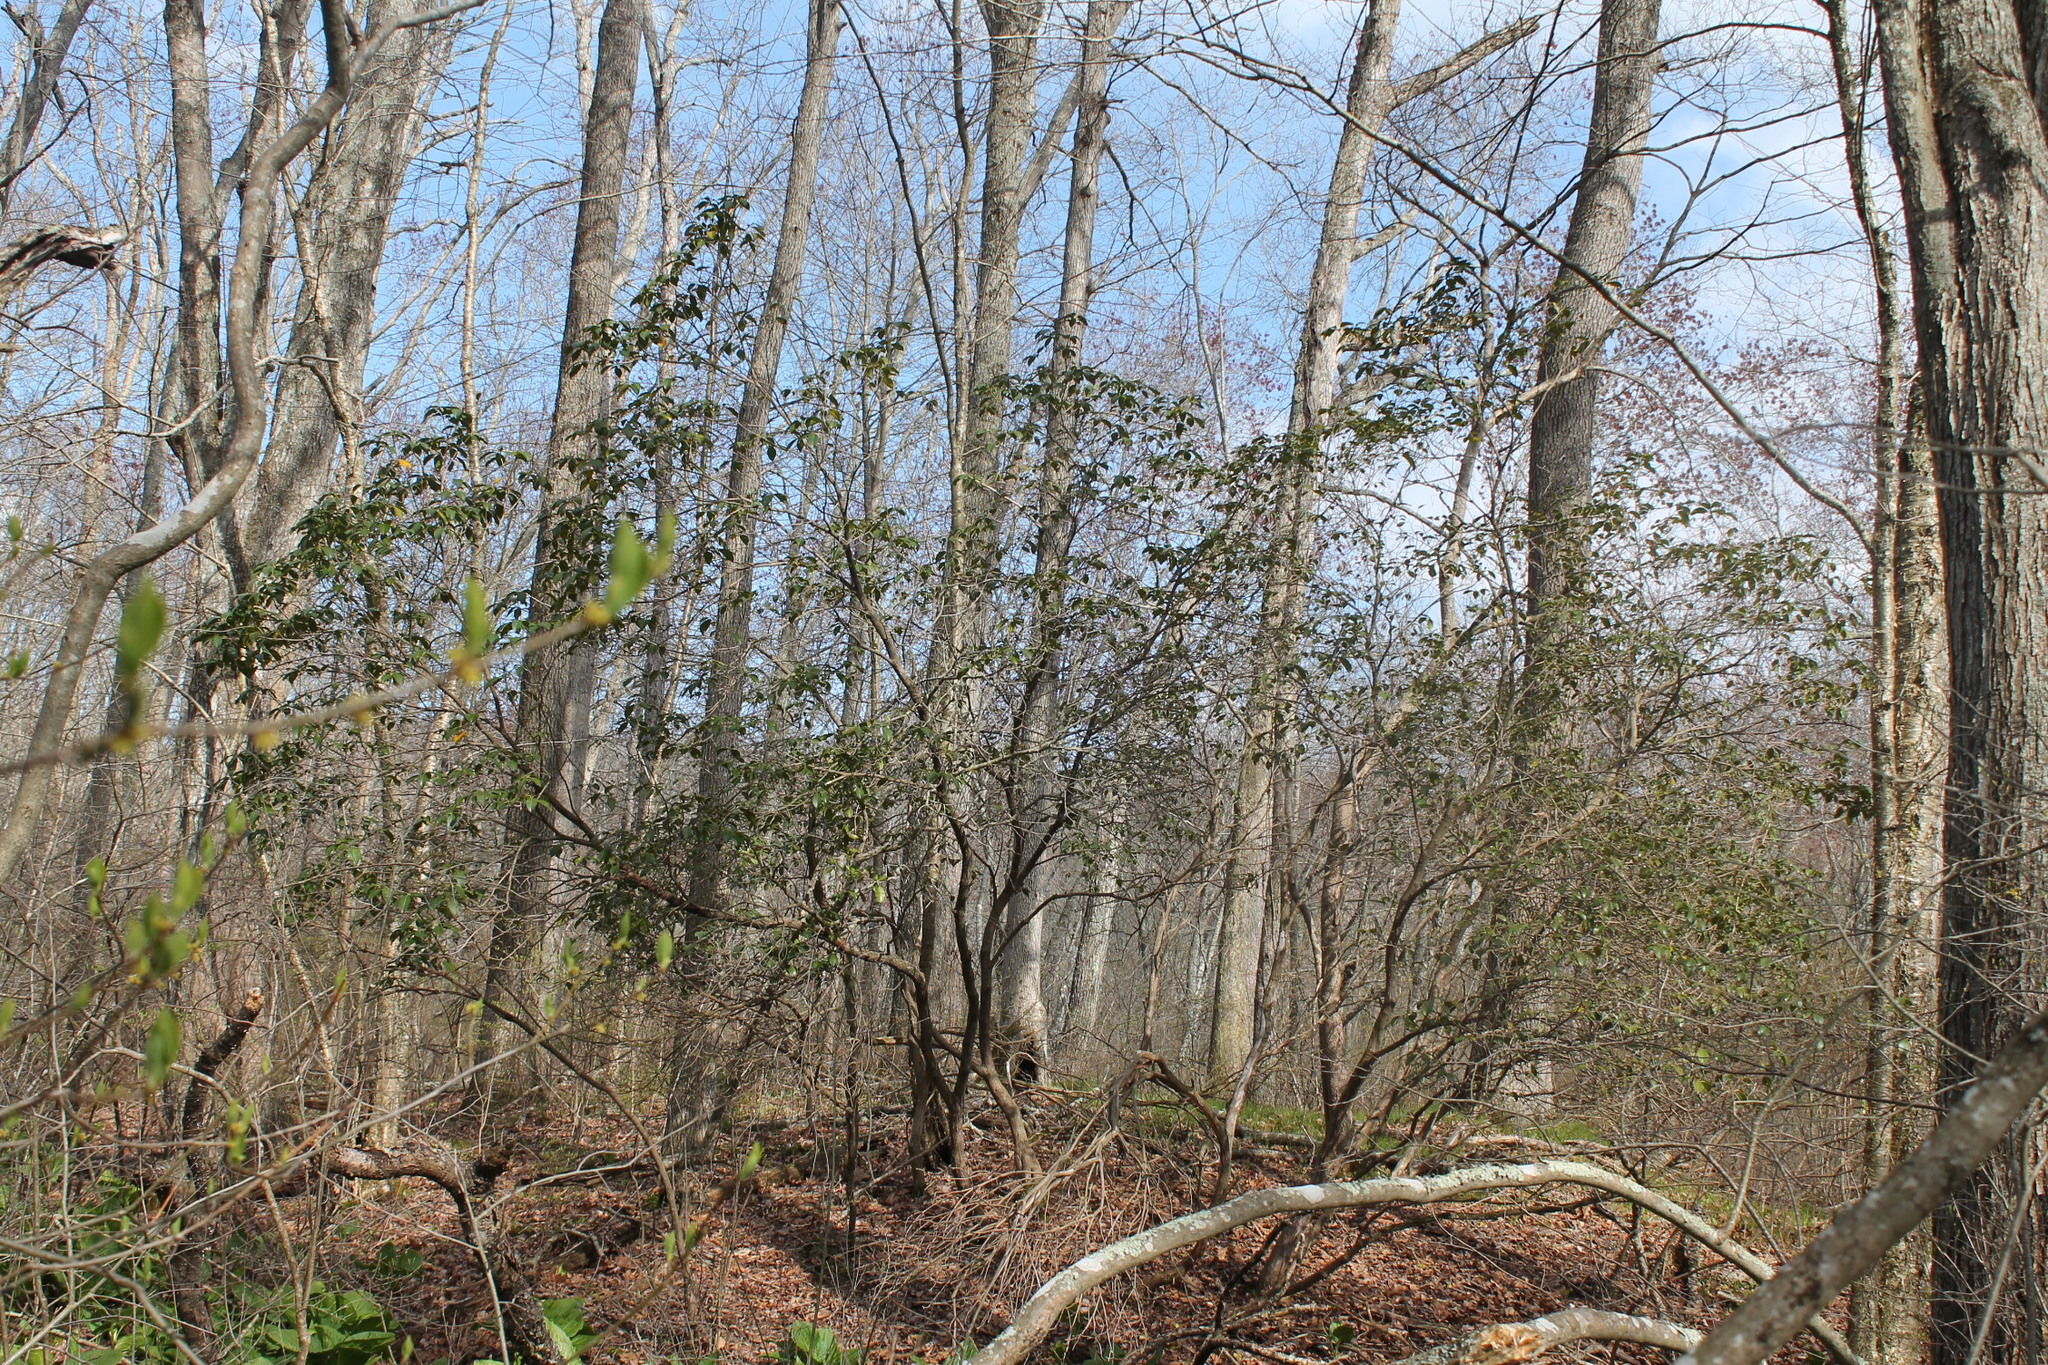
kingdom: Plantae
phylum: Tracheophyta
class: Magnoliopsida
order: Ericales
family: Ericaceae
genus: Kalmia
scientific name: Kalmia latifolia
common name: Mountain-laurel
